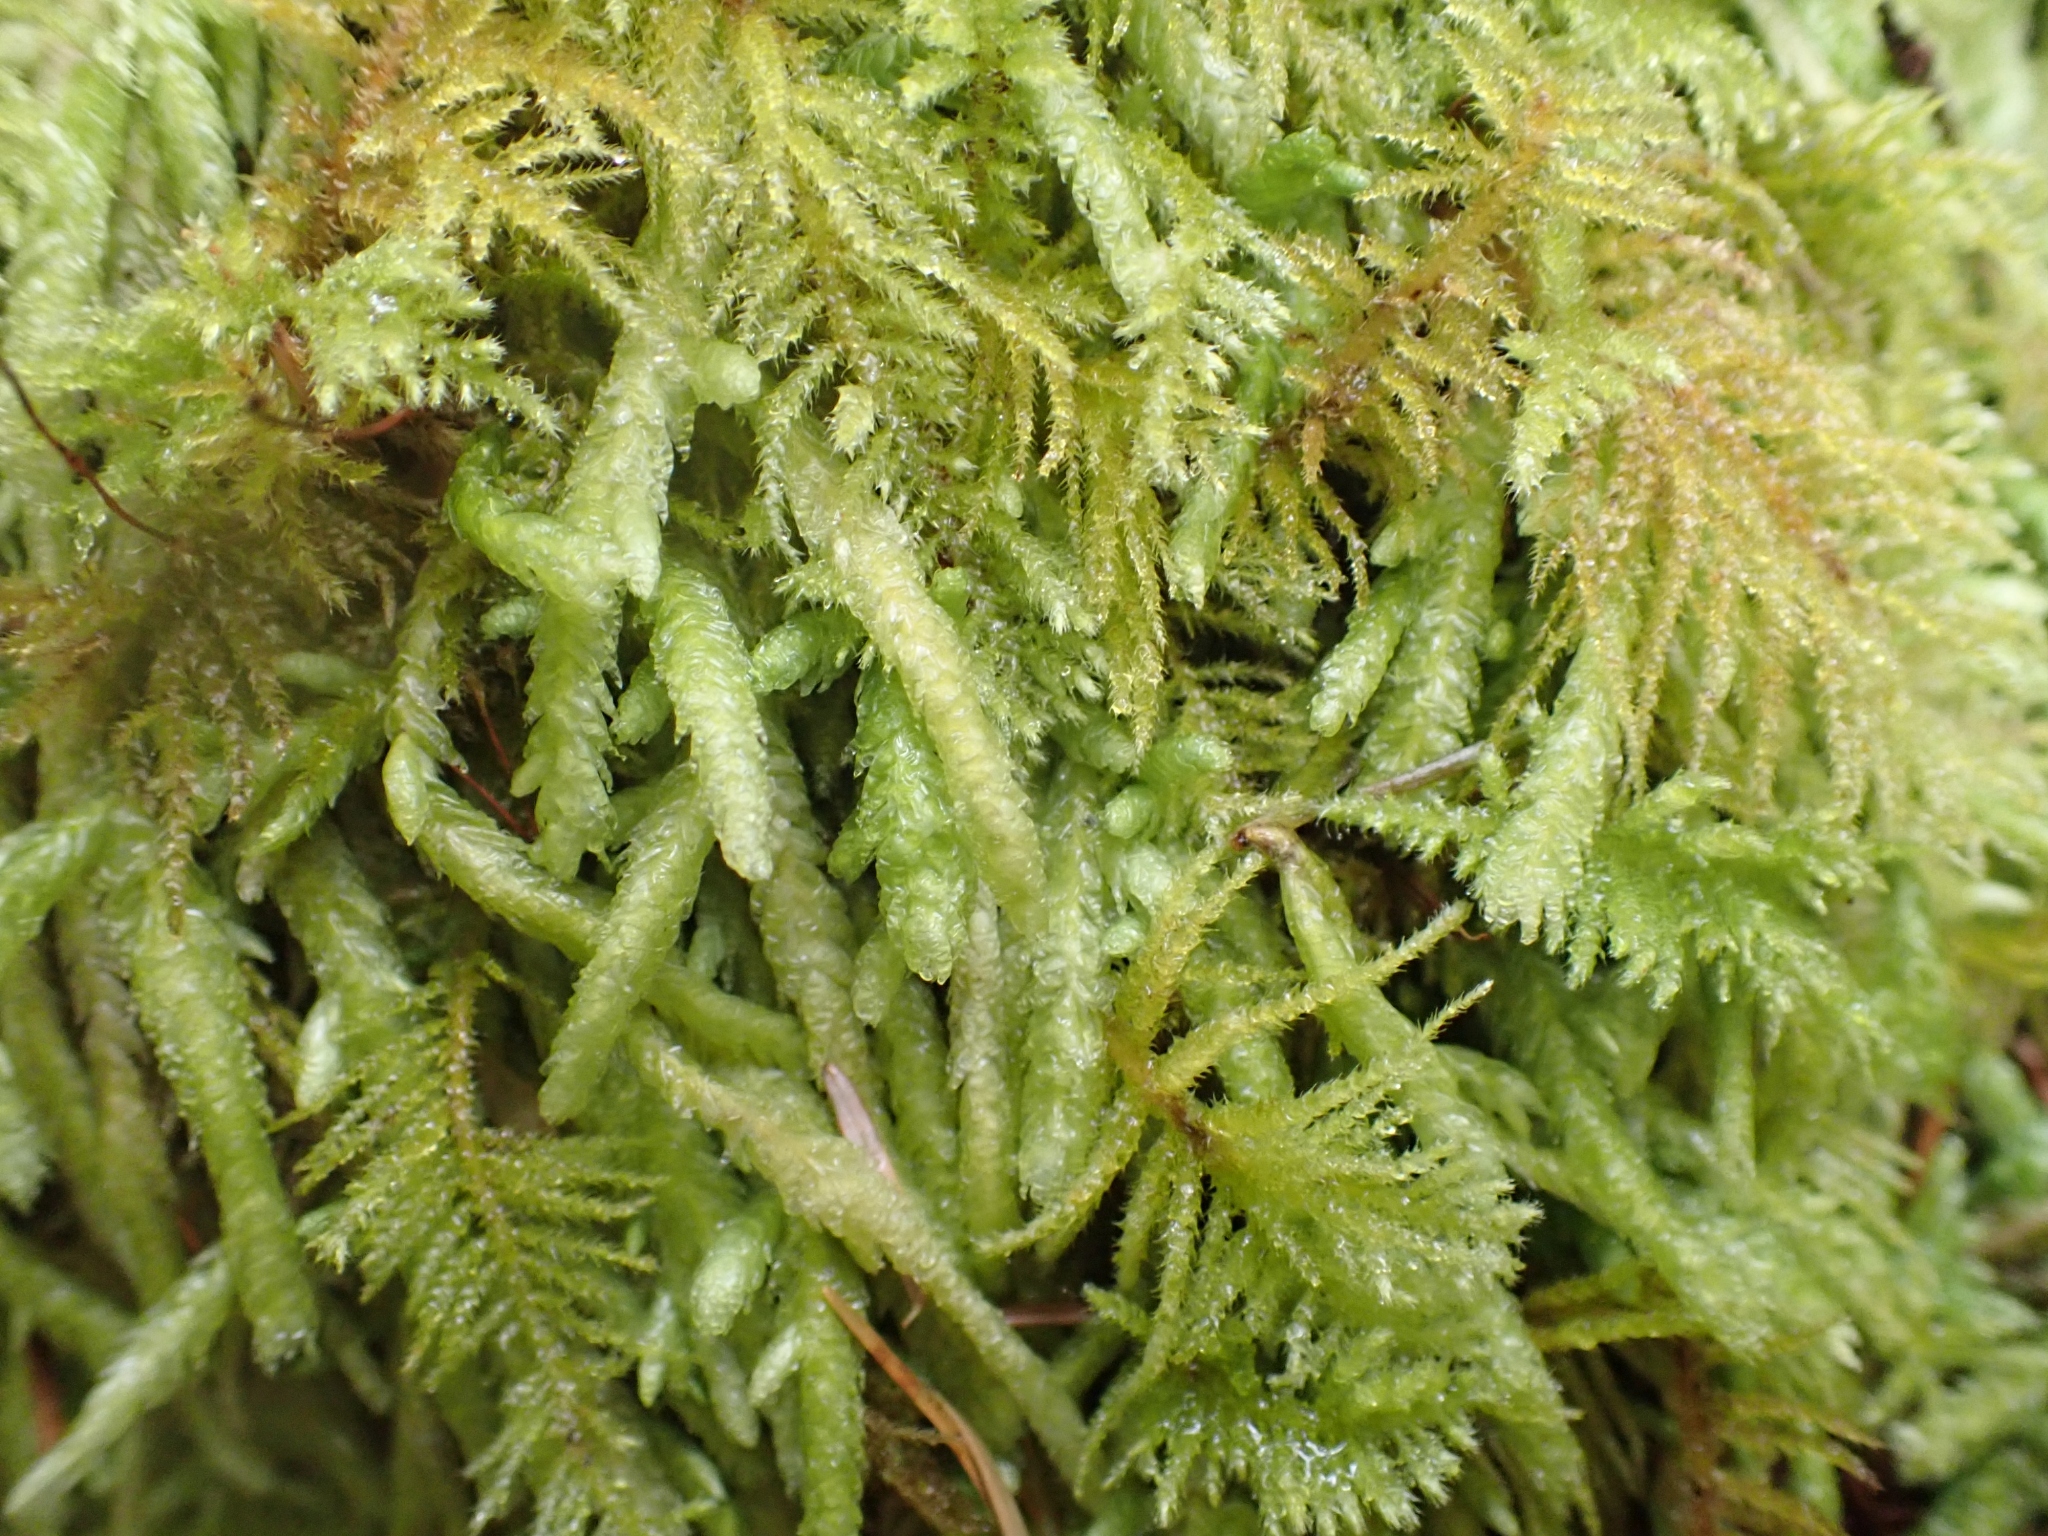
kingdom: Plantae
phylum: Bryophyta
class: Bryopsida
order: Hypnales
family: Plagiotheciaceae
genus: Plagiothecium
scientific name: Plagiothecium undulatum
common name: Waved silk-moss
